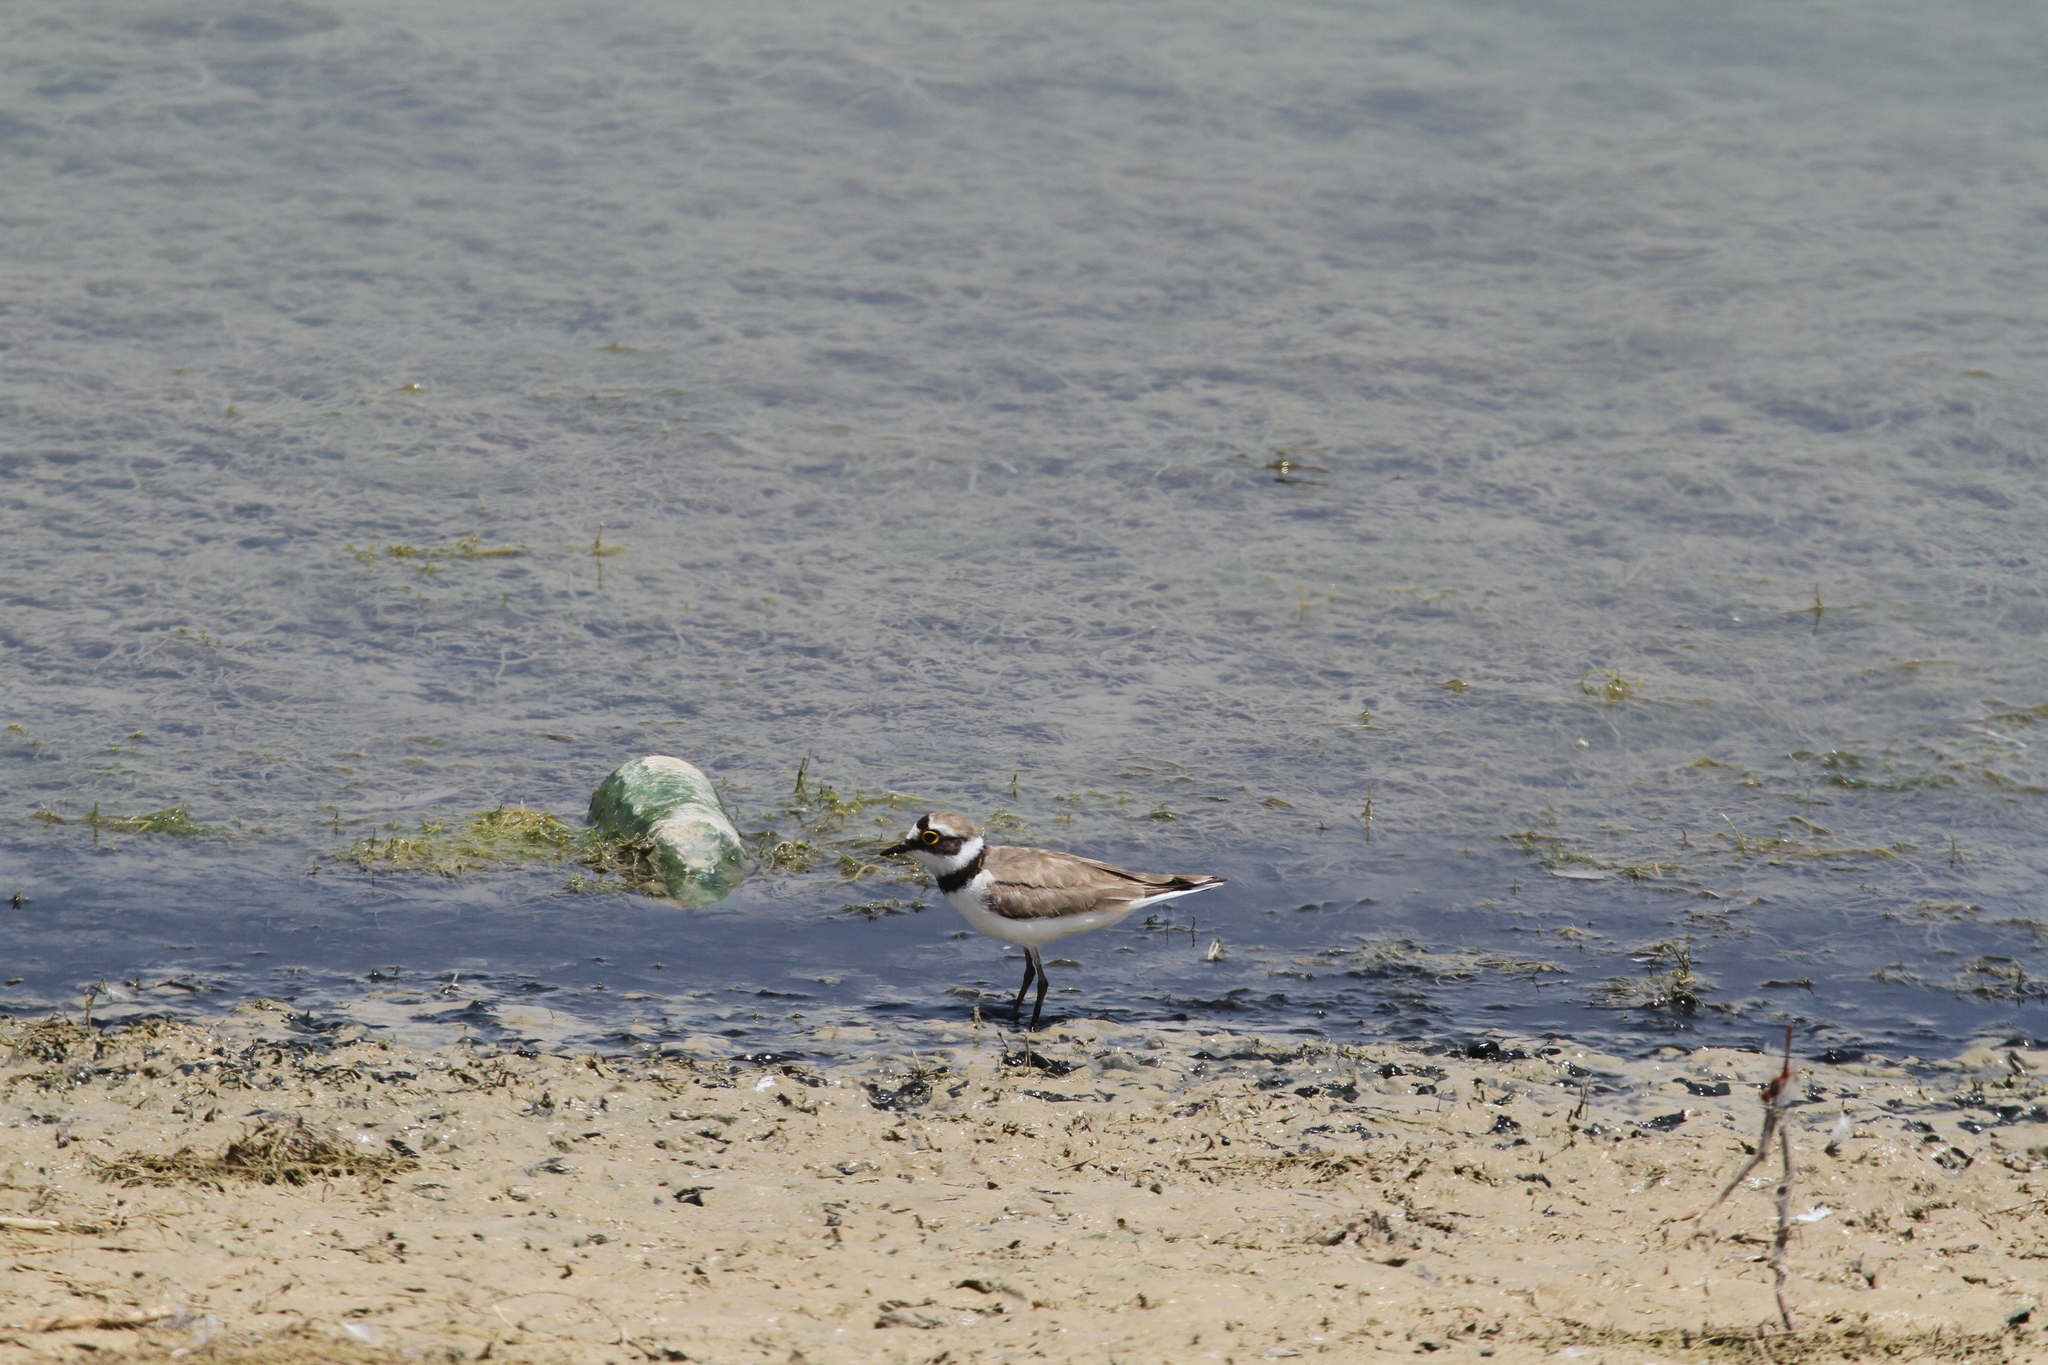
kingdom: Animalia
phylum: Chordata
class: Aves
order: Charadriiformes
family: Charadriidae
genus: Charadrius
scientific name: Charadrius dubius
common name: Little ringed plover
